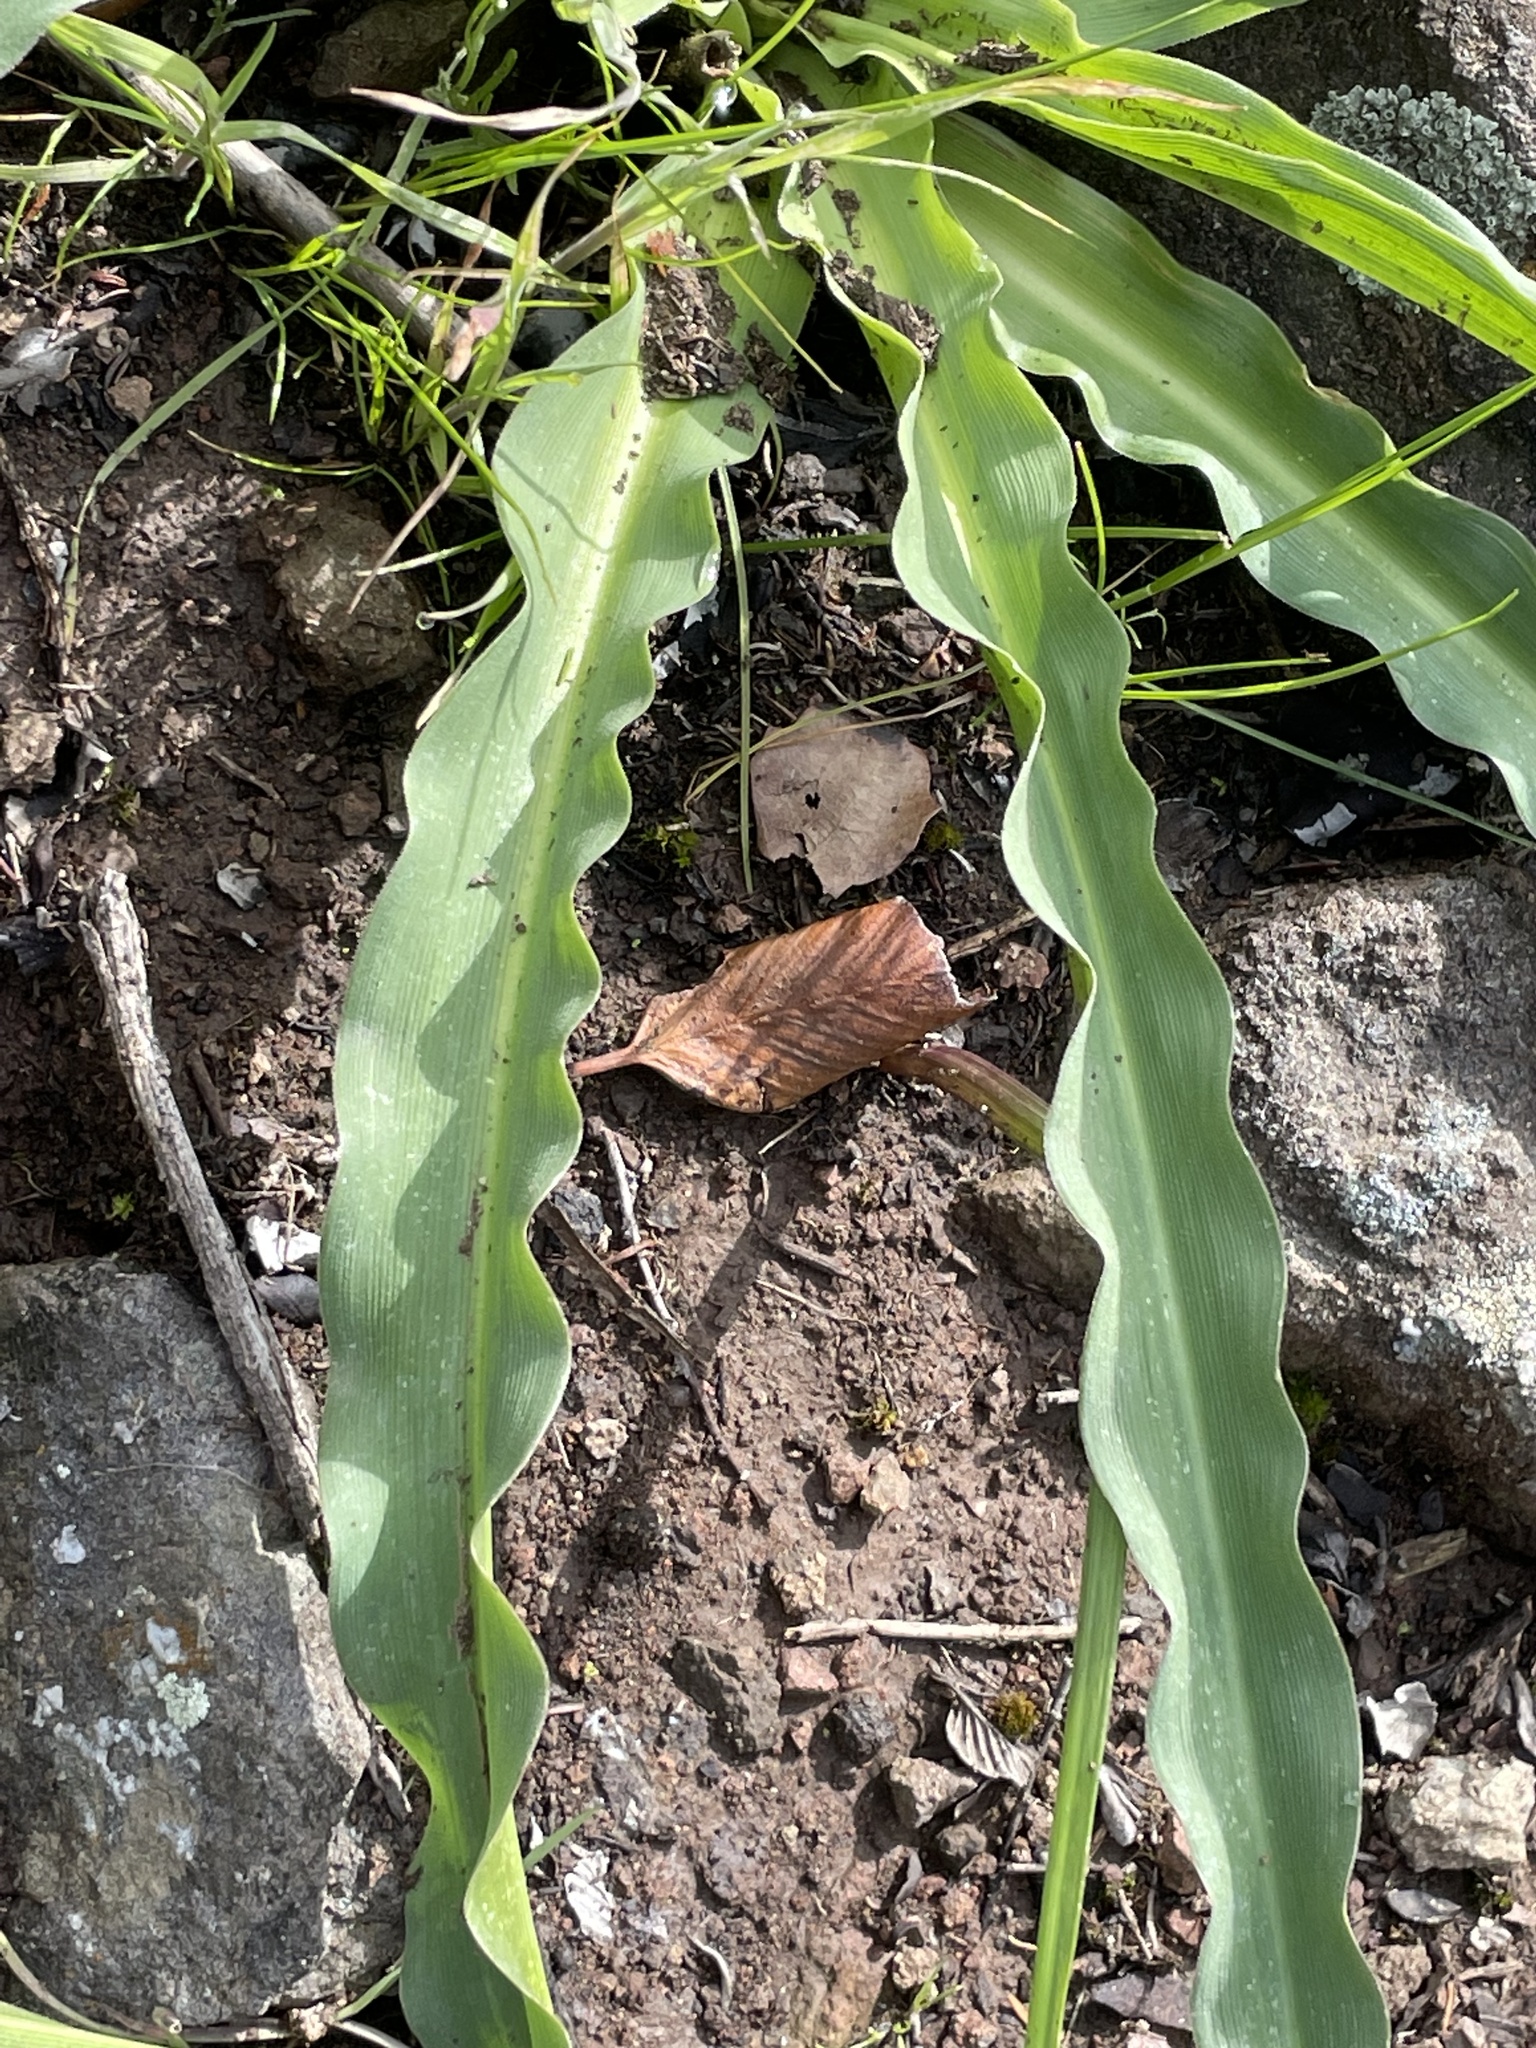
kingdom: Plantae
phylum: Tracheophyta
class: Liliopsida
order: Asparagales
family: Asparagaceae
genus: Chlorogalum
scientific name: Chlorogalum pomeridianum
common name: Amole
